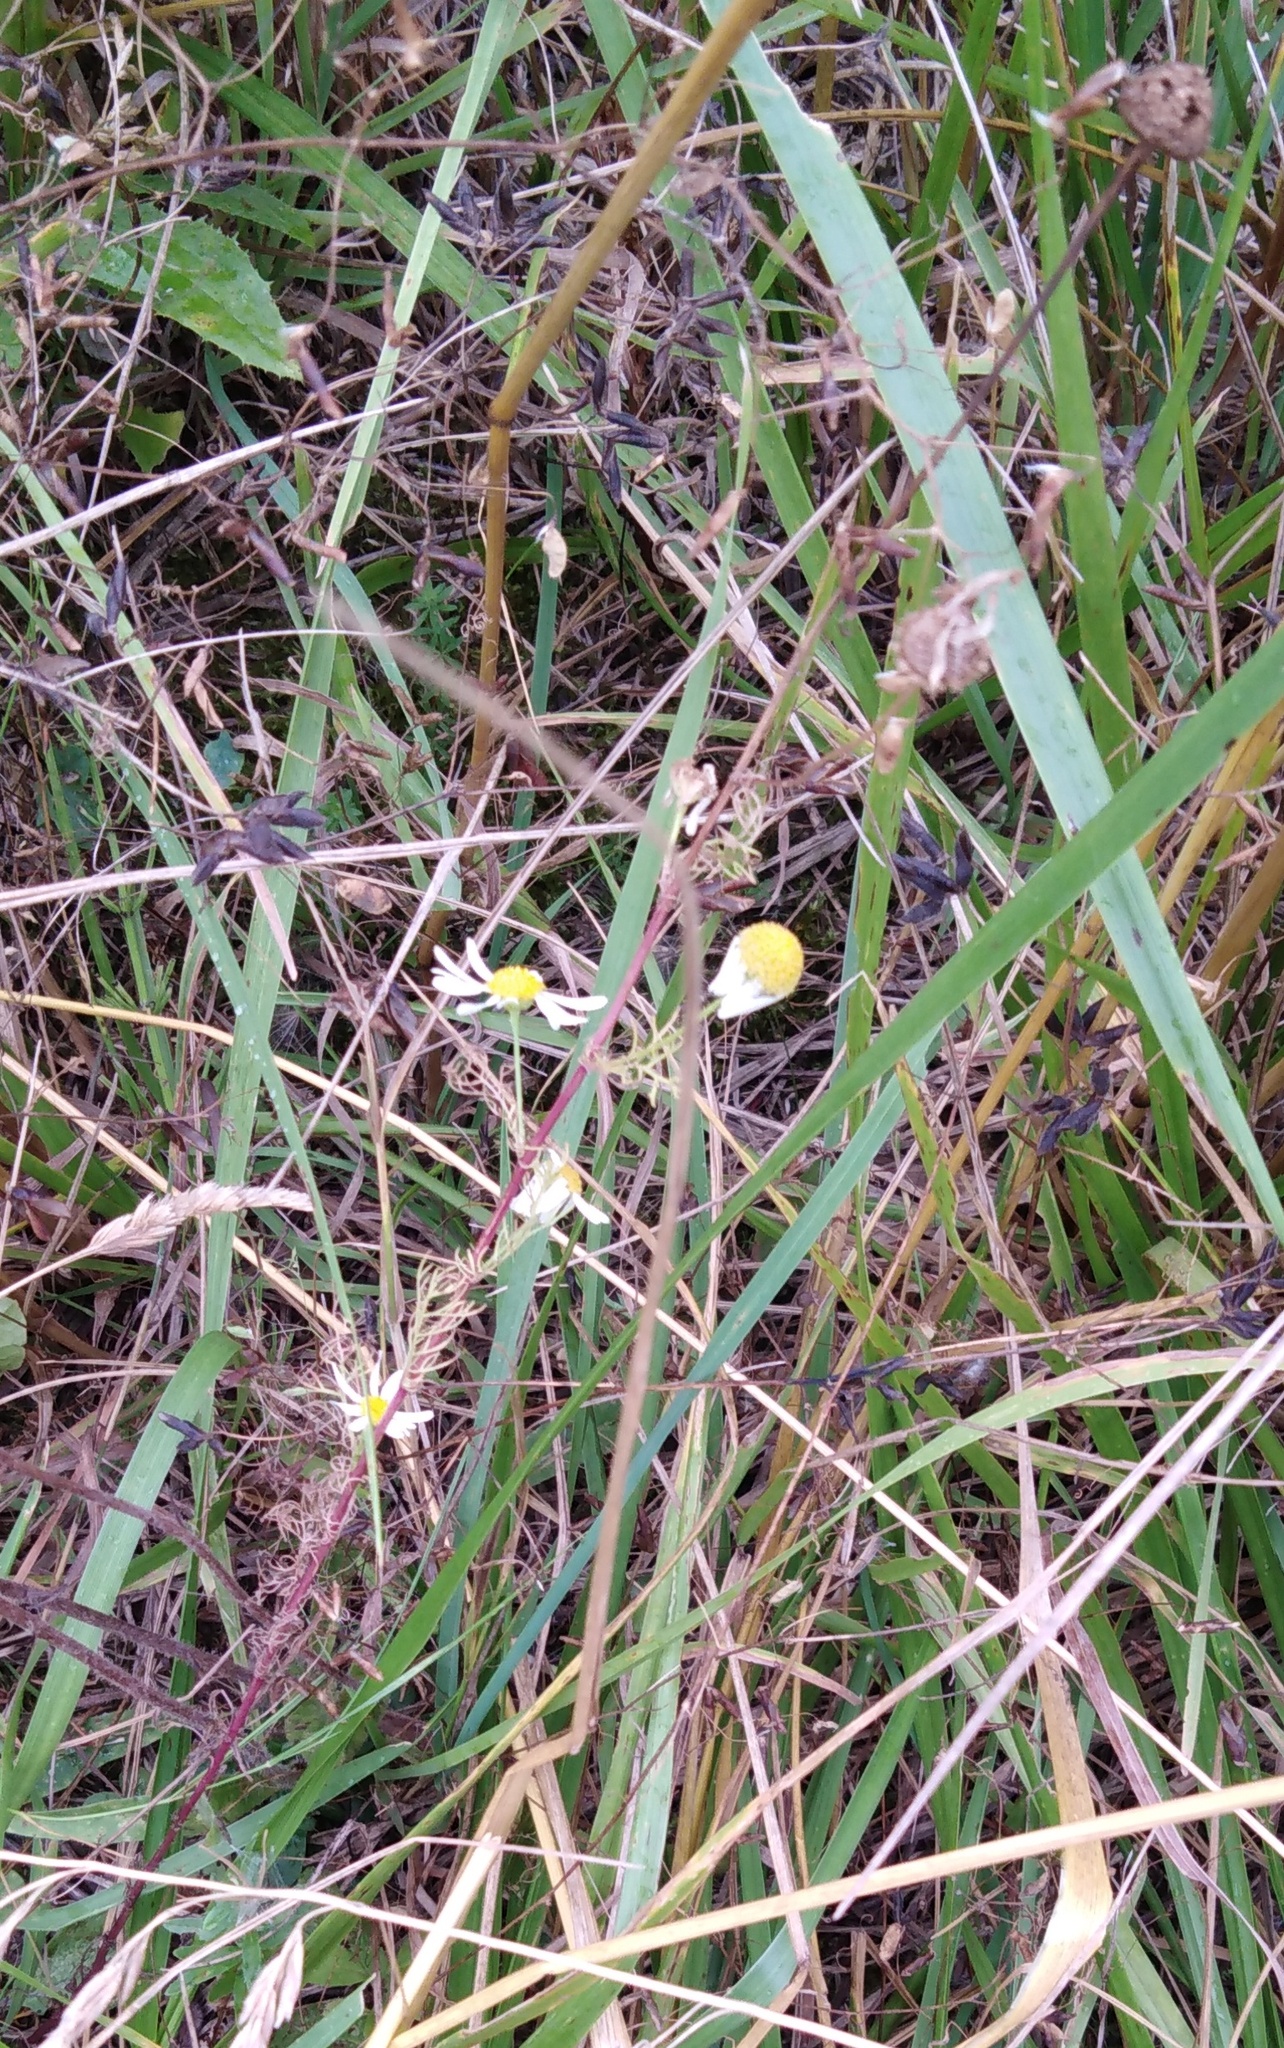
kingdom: Plantae
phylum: Tracheophyta
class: Magnoliopsida
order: Asterales
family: Asteraceae
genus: Tripleurospermum
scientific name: Tripleurospermum inodorum
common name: Scentless mayweed
